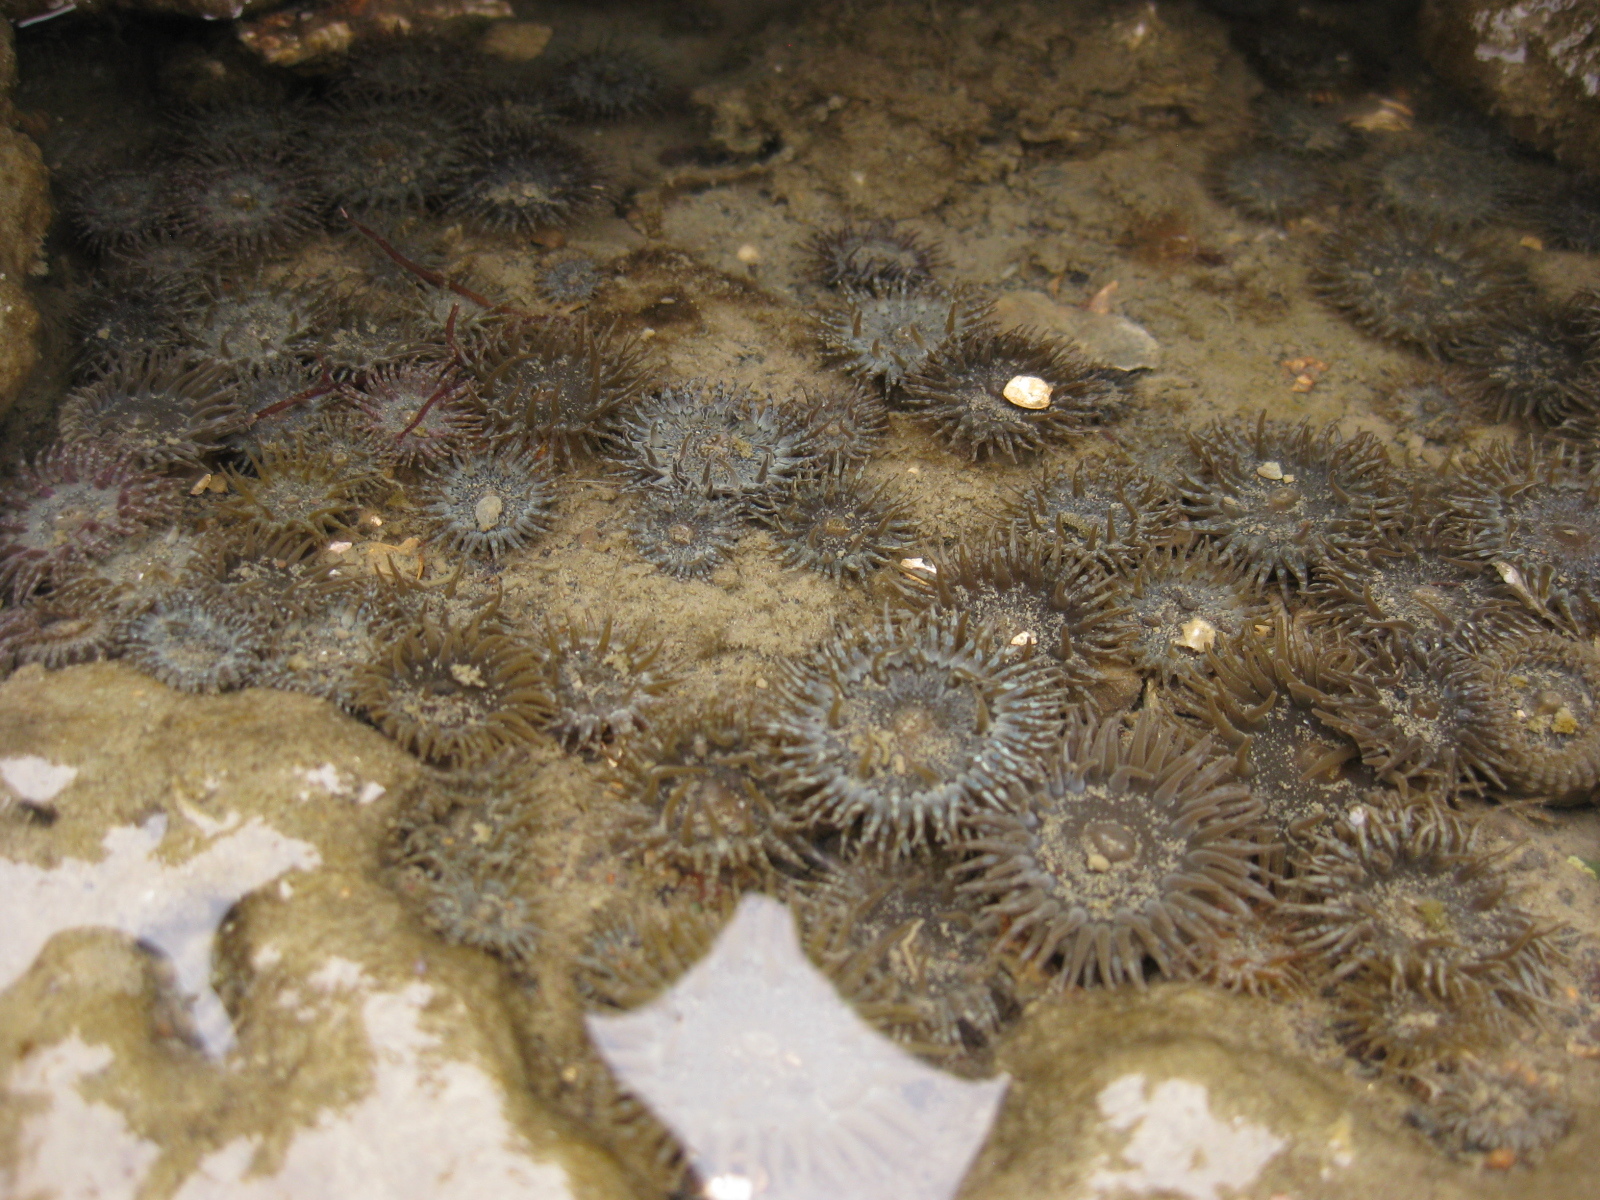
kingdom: Animalia
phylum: Cnidaria
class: Anthozoa
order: Actiniaria
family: Actiniidae
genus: Anthopleura
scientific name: Anthopleura hermaphroditica
